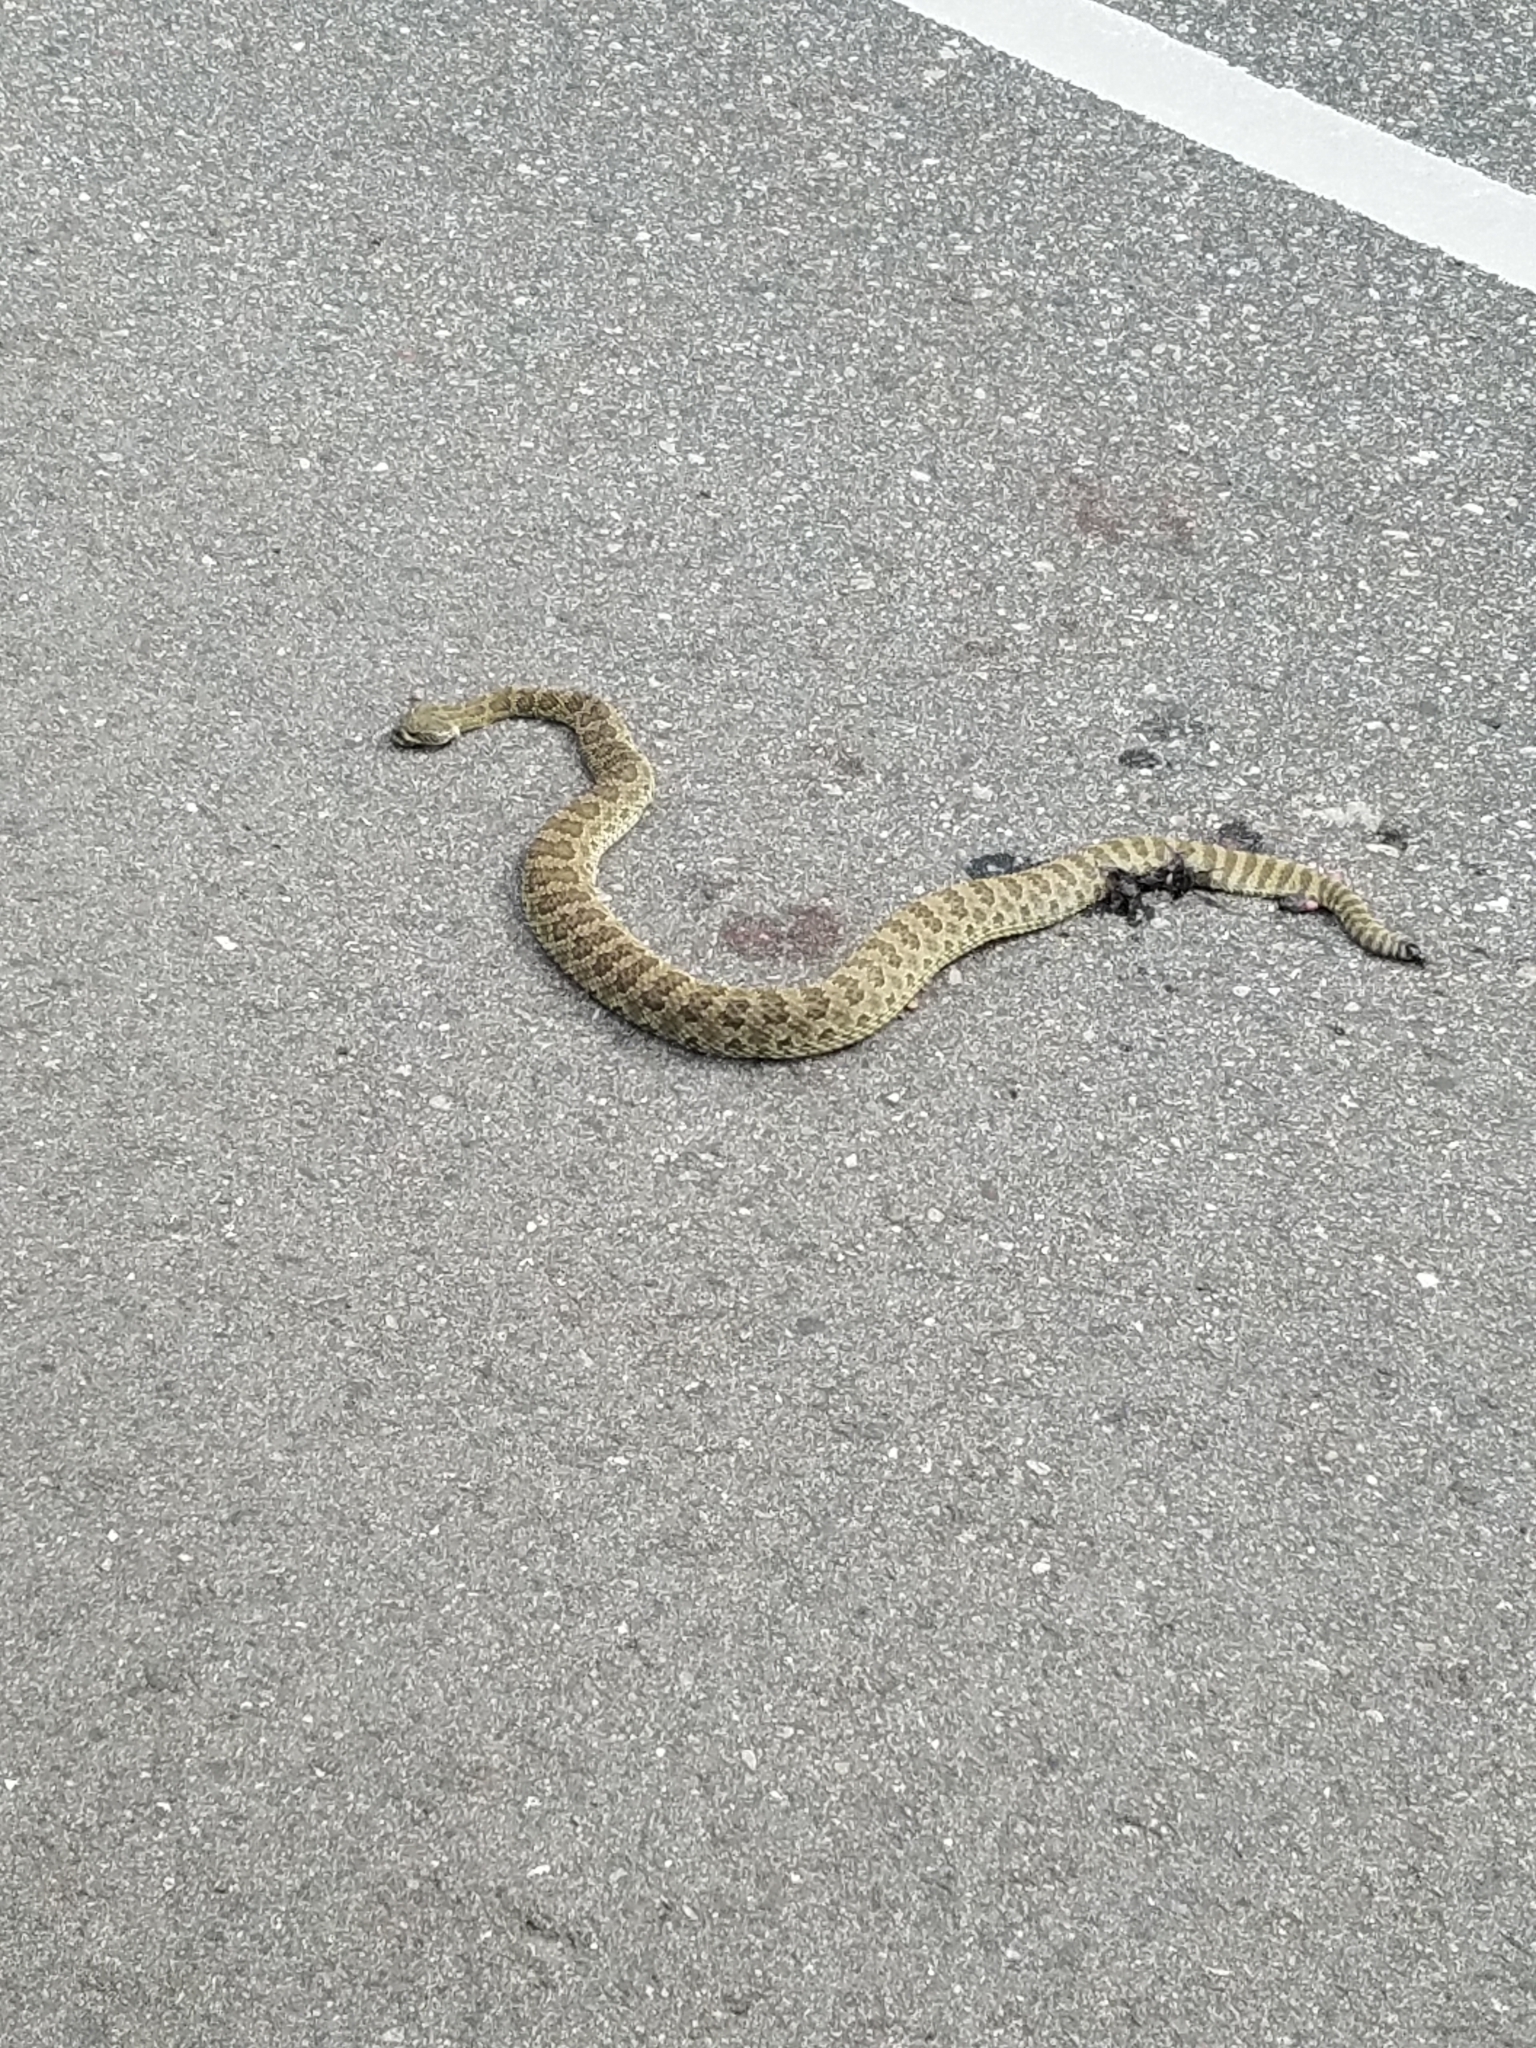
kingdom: Animalia
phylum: Chordata
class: Squamata
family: Viperidae
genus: Crotalus
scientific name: Crotalus viridis
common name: Prairie rattlesnake
